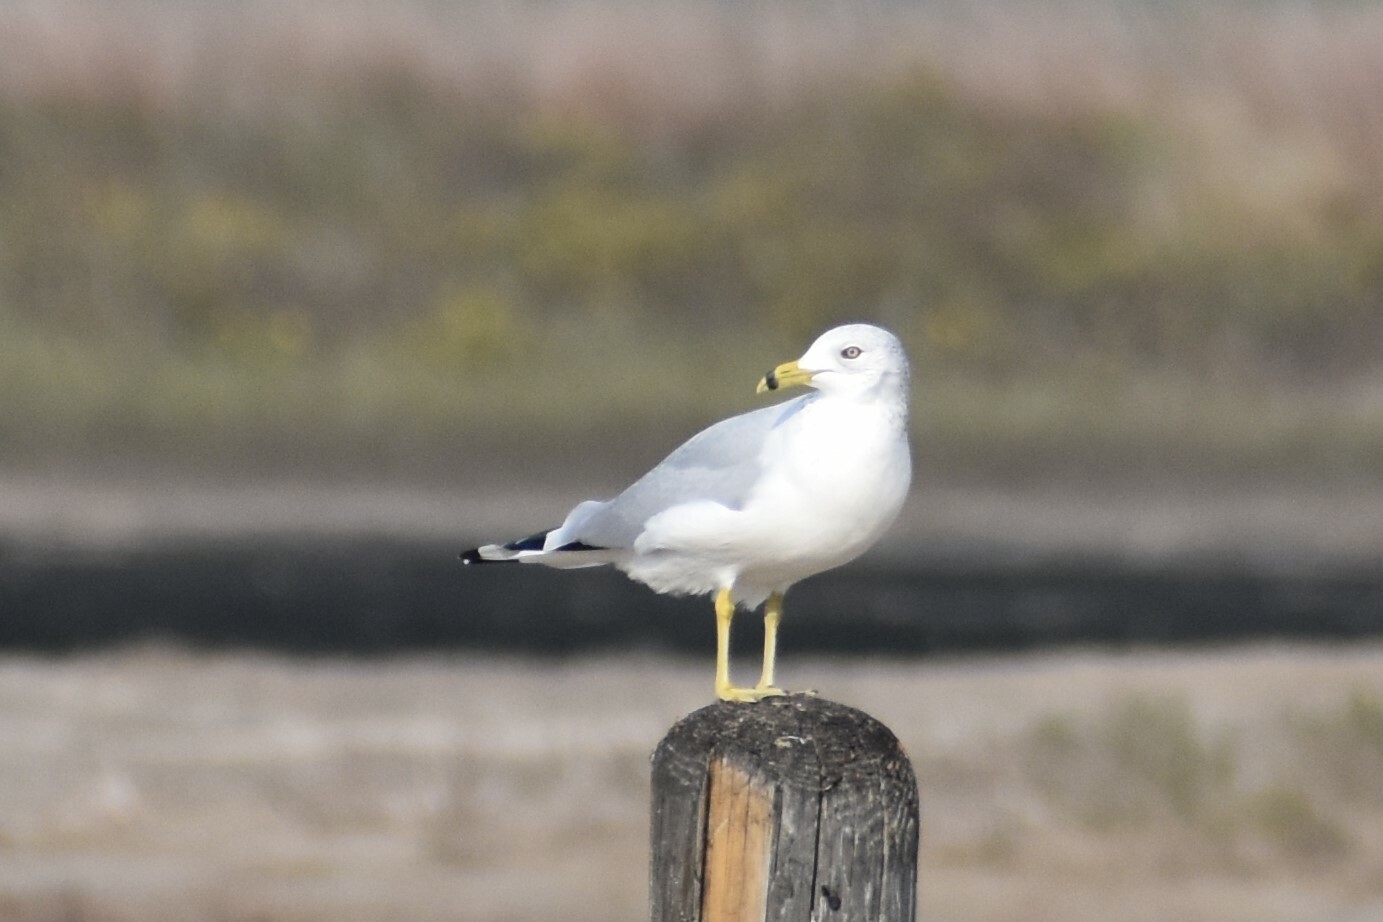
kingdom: Animalia
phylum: Chordata
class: Aves
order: Charadriiformes
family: Laridae
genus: Larus
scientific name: Larus delawarensis
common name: Ring-billed gull
